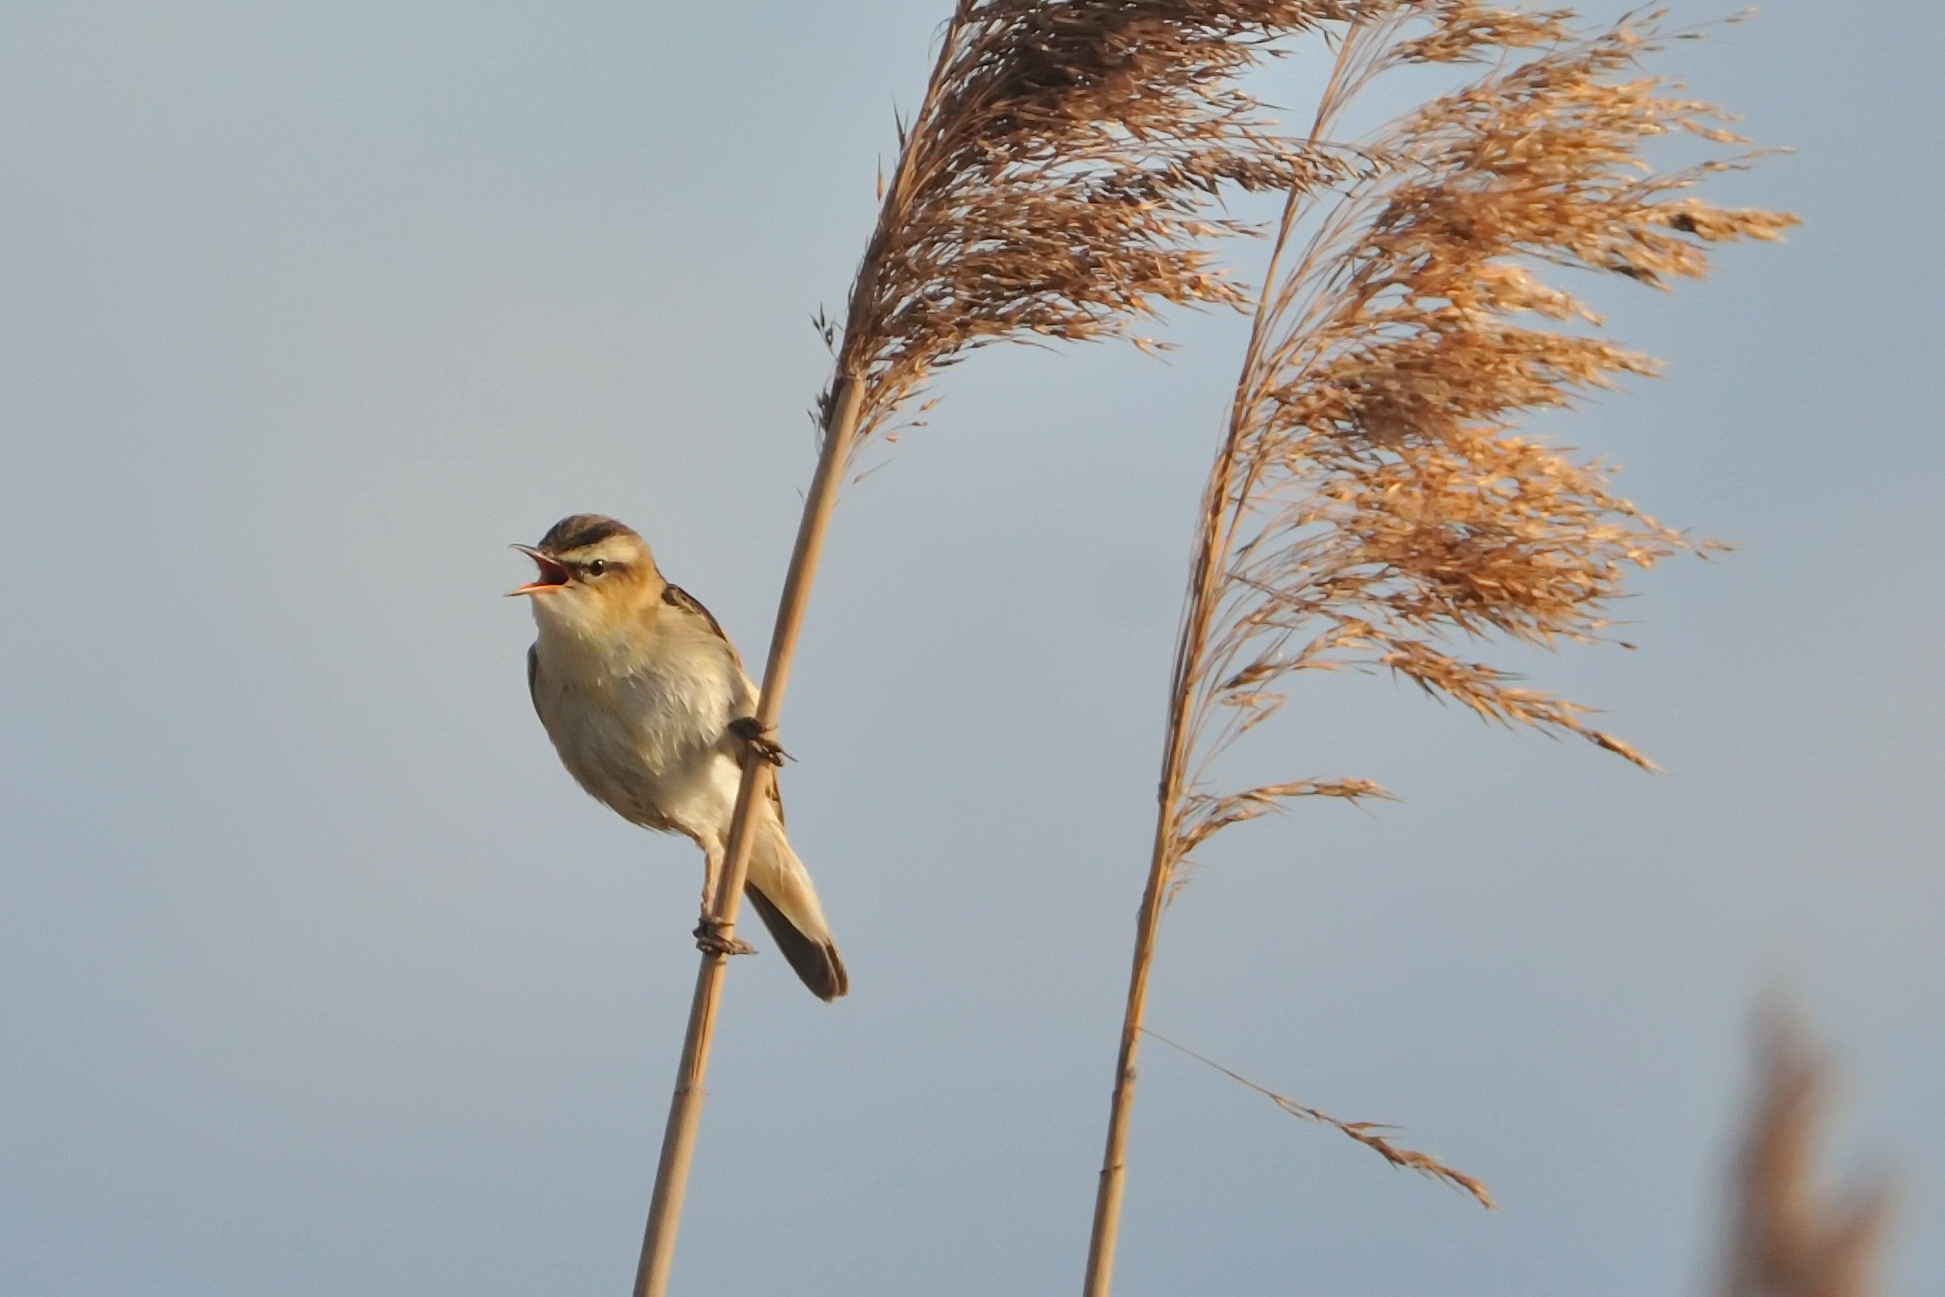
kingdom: Animalia
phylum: Chordata
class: Aves
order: Passeriformes
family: Acrocephalidae
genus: Acrocephalus
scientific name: Acrocephalus schoenobaenus
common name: Sedge warbler
